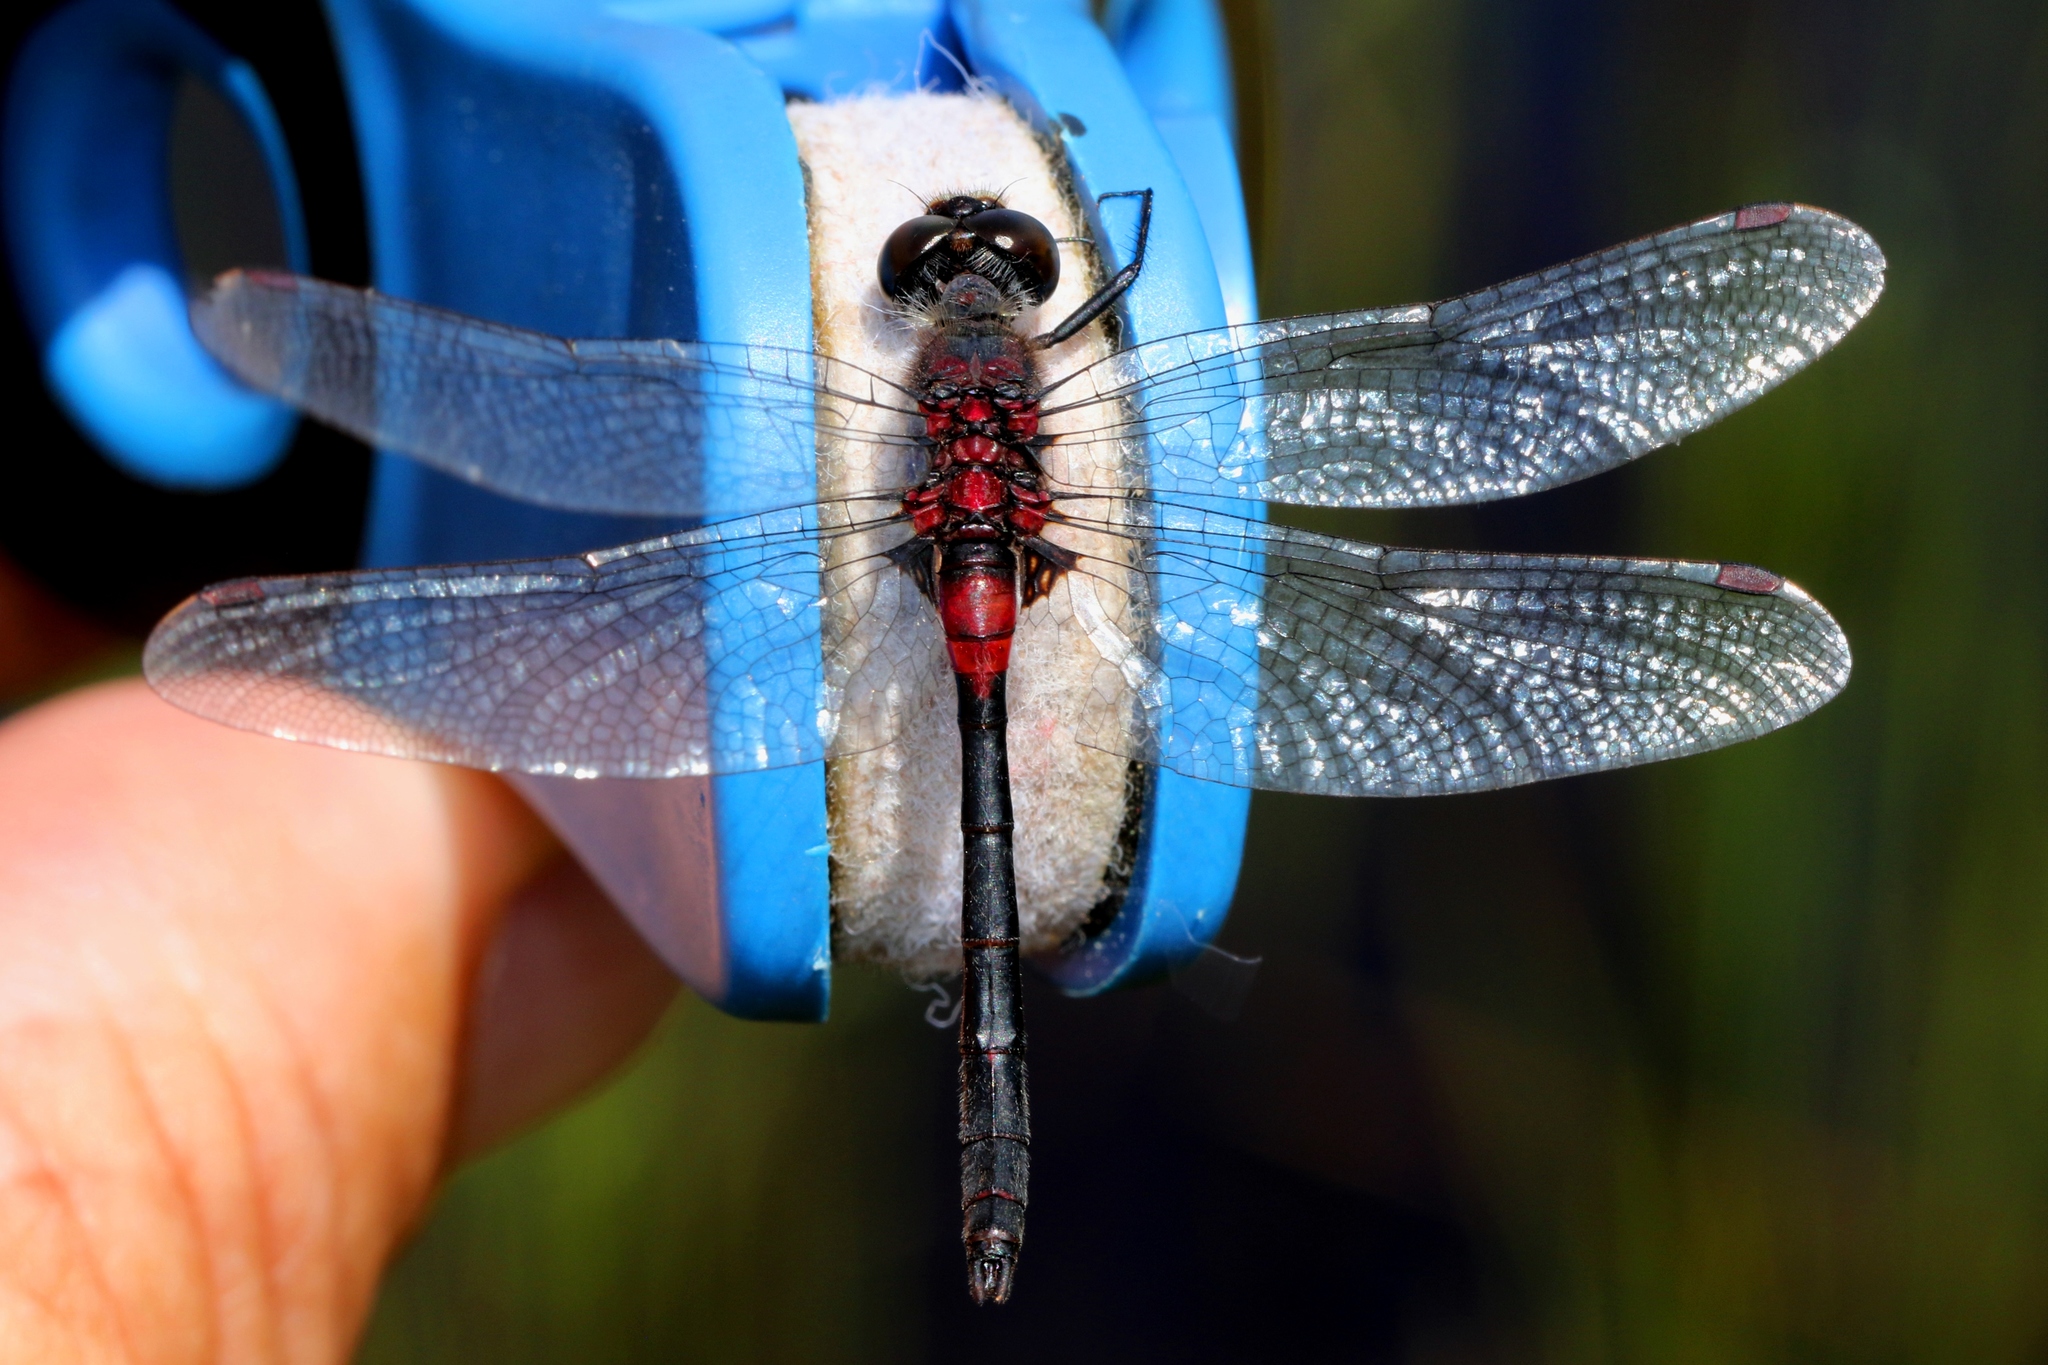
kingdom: Animalia
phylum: Arthropoda
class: Insecta
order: Odonata
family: Libellulidae
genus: Leucorrhinia
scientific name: Leucorrhinia glacialis
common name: Crimson-ringed whiteface
